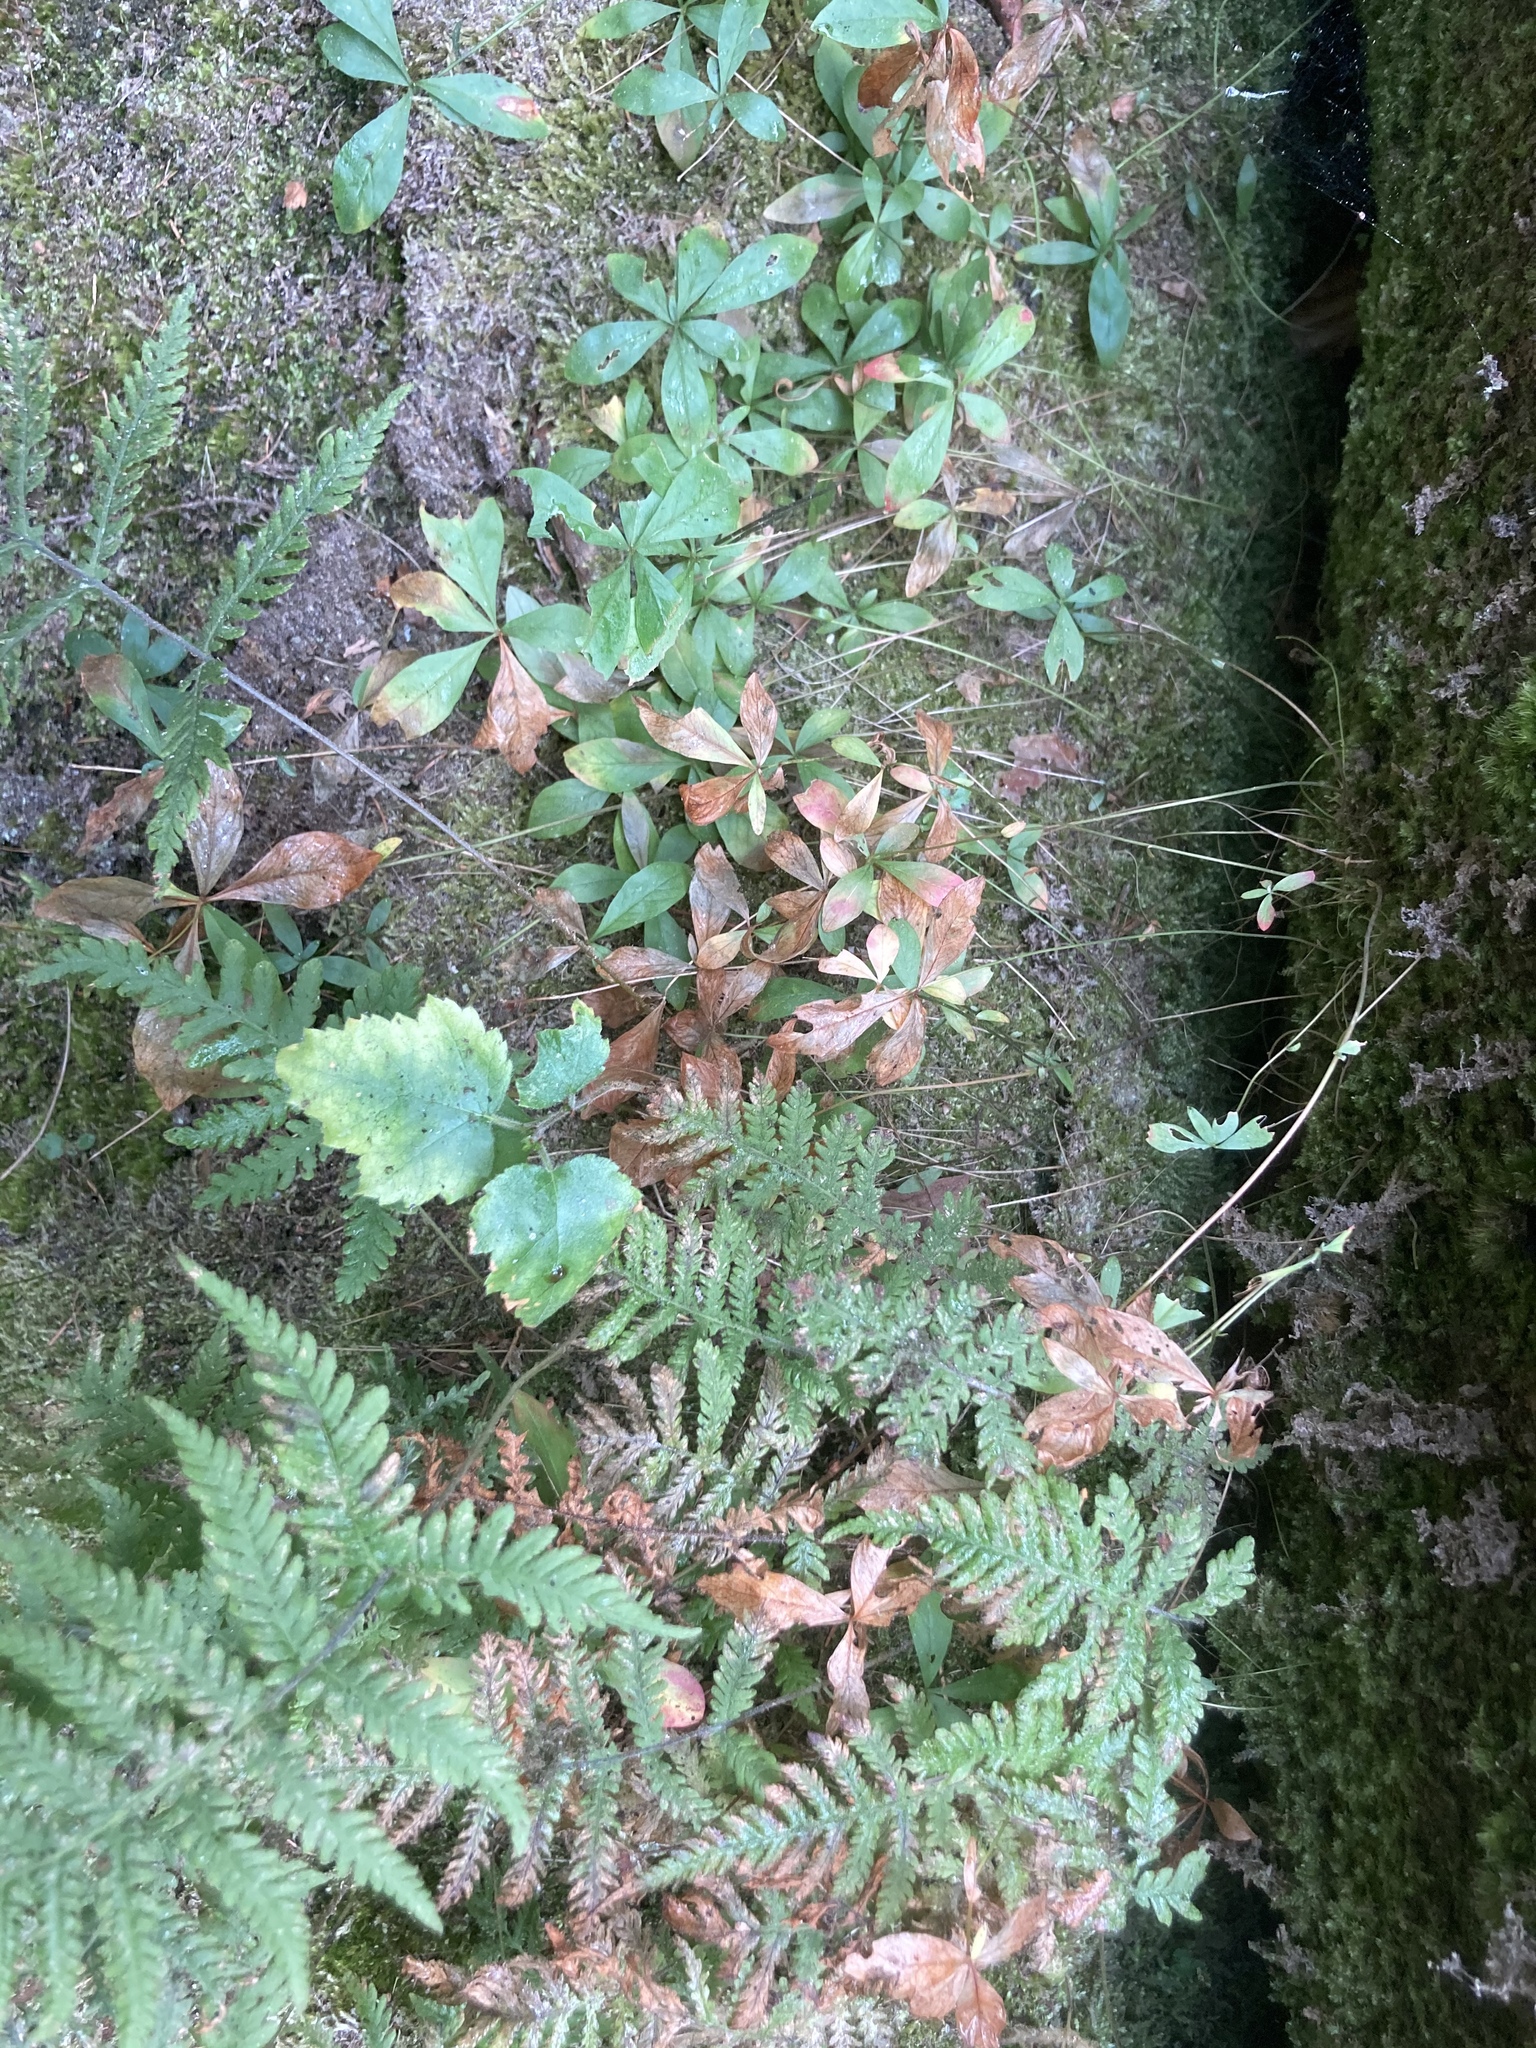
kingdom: Plantae
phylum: Tracheophyta
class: Polypodiopsida
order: Polypodiales
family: Thelypteridaceae
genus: Phegopteris
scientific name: Phegopteris connectilis
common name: Beech fern
